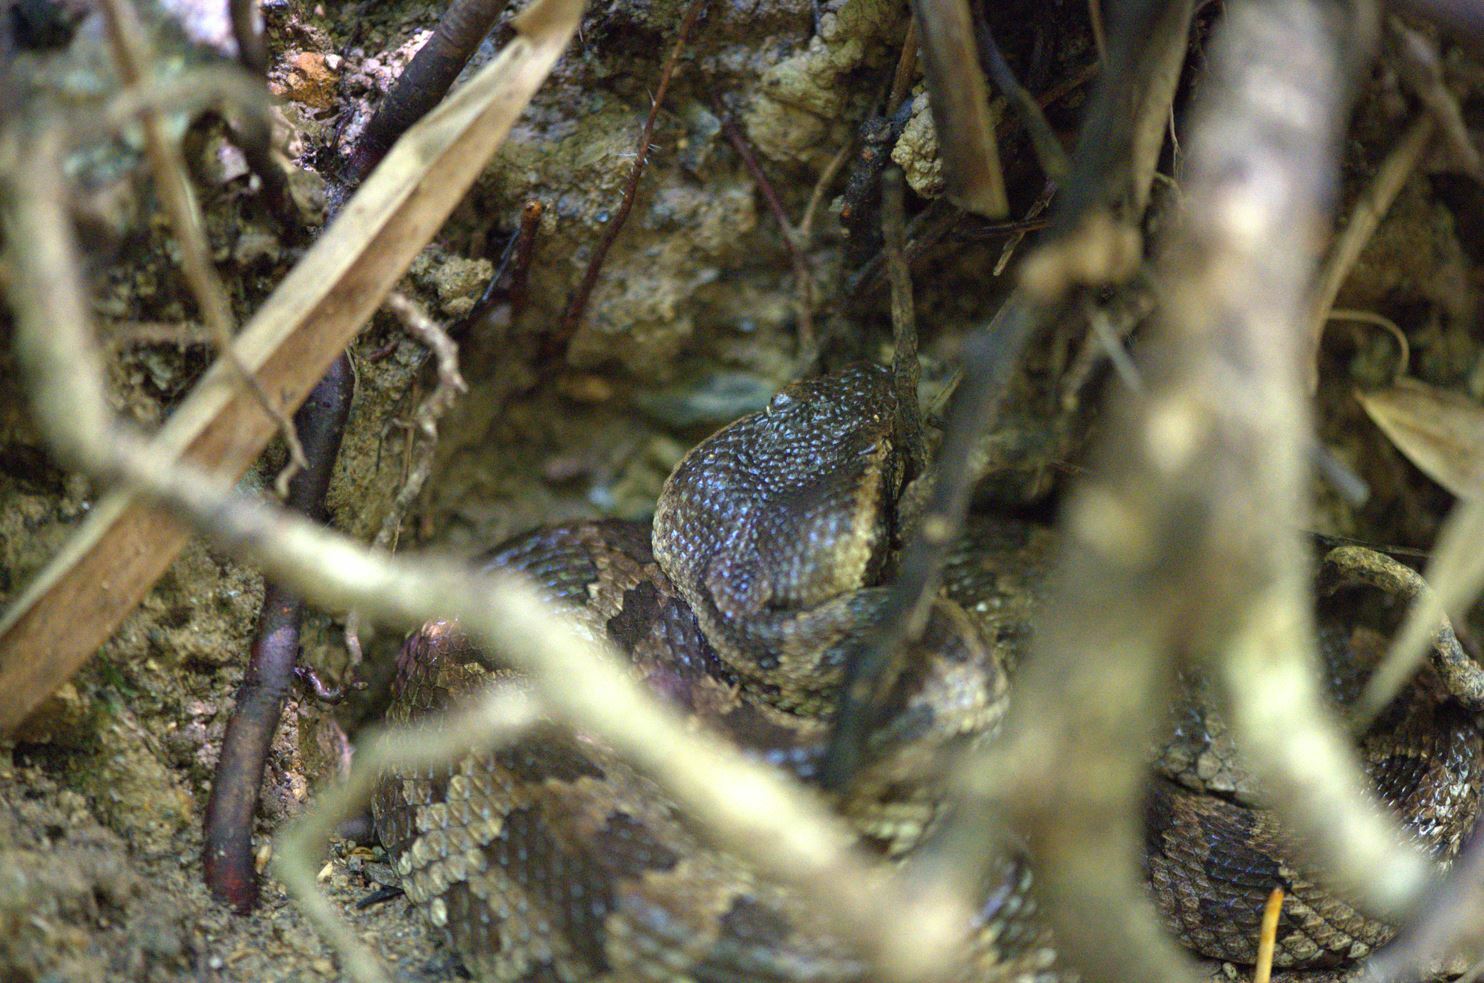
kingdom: Animalia
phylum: Chordata
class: Squamata
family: Viperidae
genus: Ovophis
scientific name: Ovophis okinavensis
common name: Okinawa pitviper
